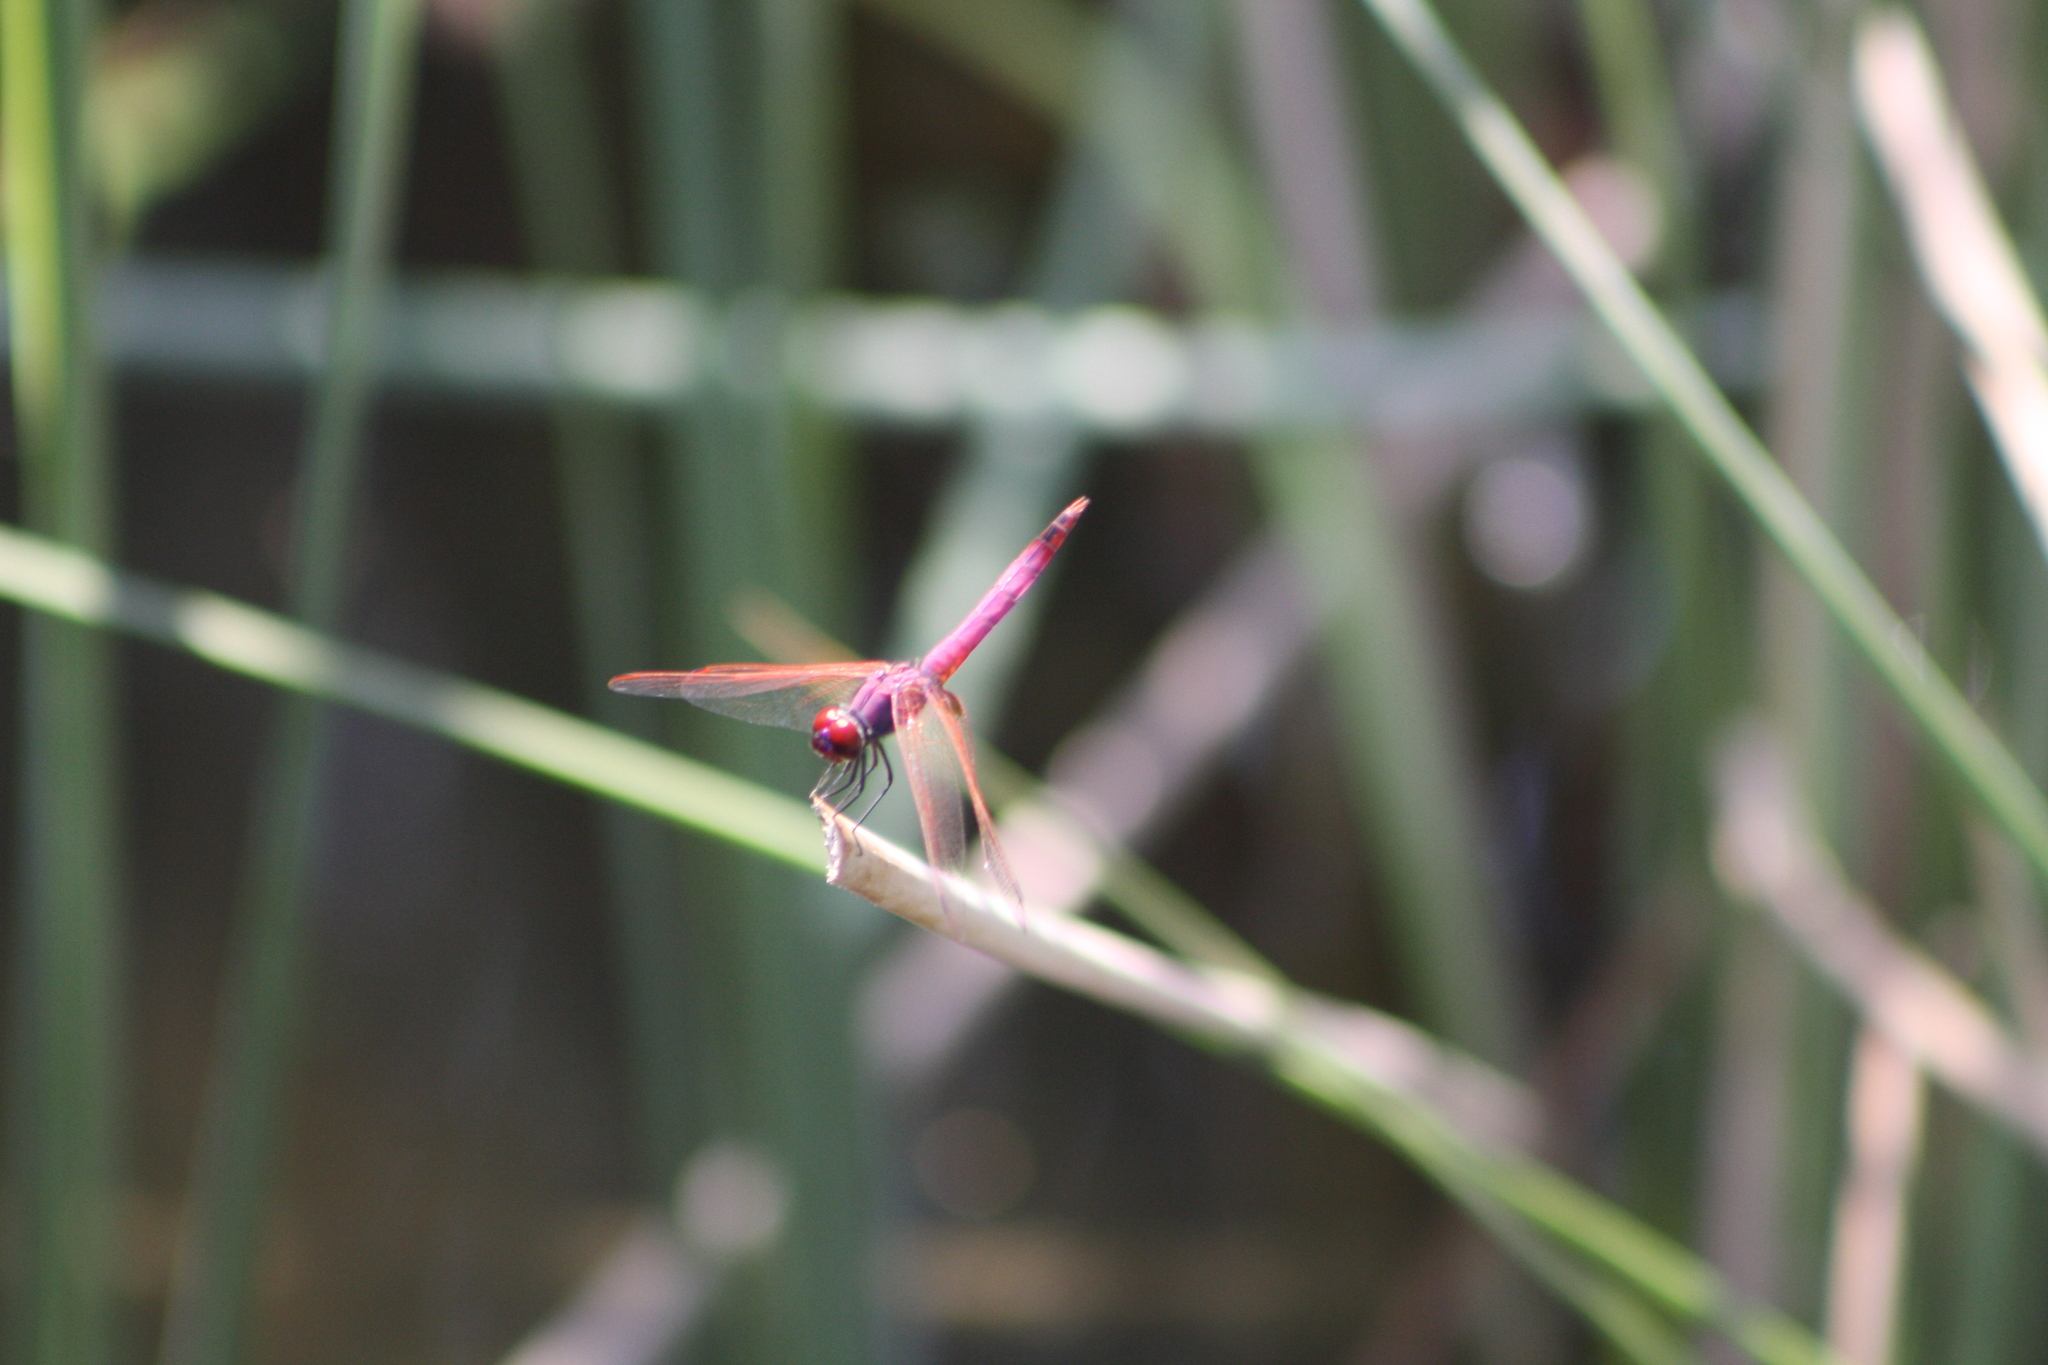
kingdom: Animalia
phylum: Arthropoda
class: Insecta
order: Odonata
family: Libellulidae
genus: Trithemis
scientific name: Trithemis annulata
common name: Violet dropwing
